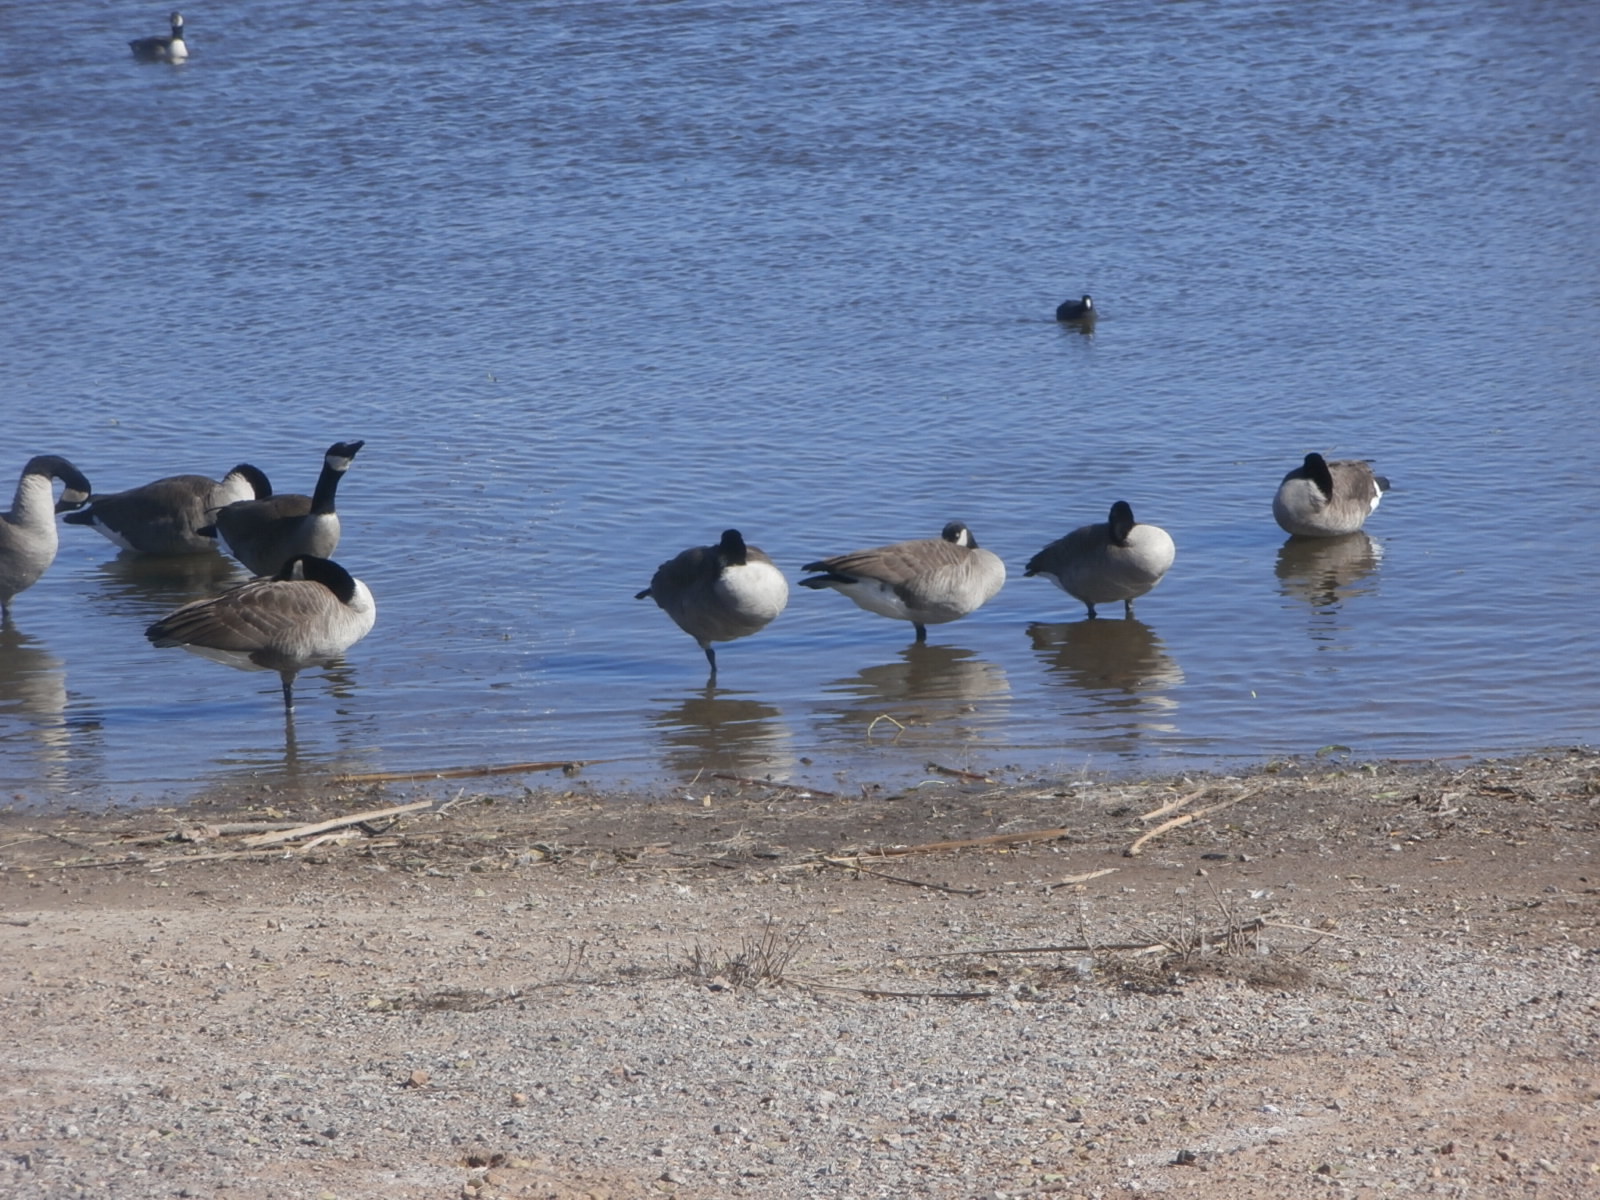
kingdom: Animalia
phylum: Chordata
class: Aves
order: Anseriformes
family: Anatidae
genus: Branta
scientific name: Branta canadensis
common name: Canada goose
